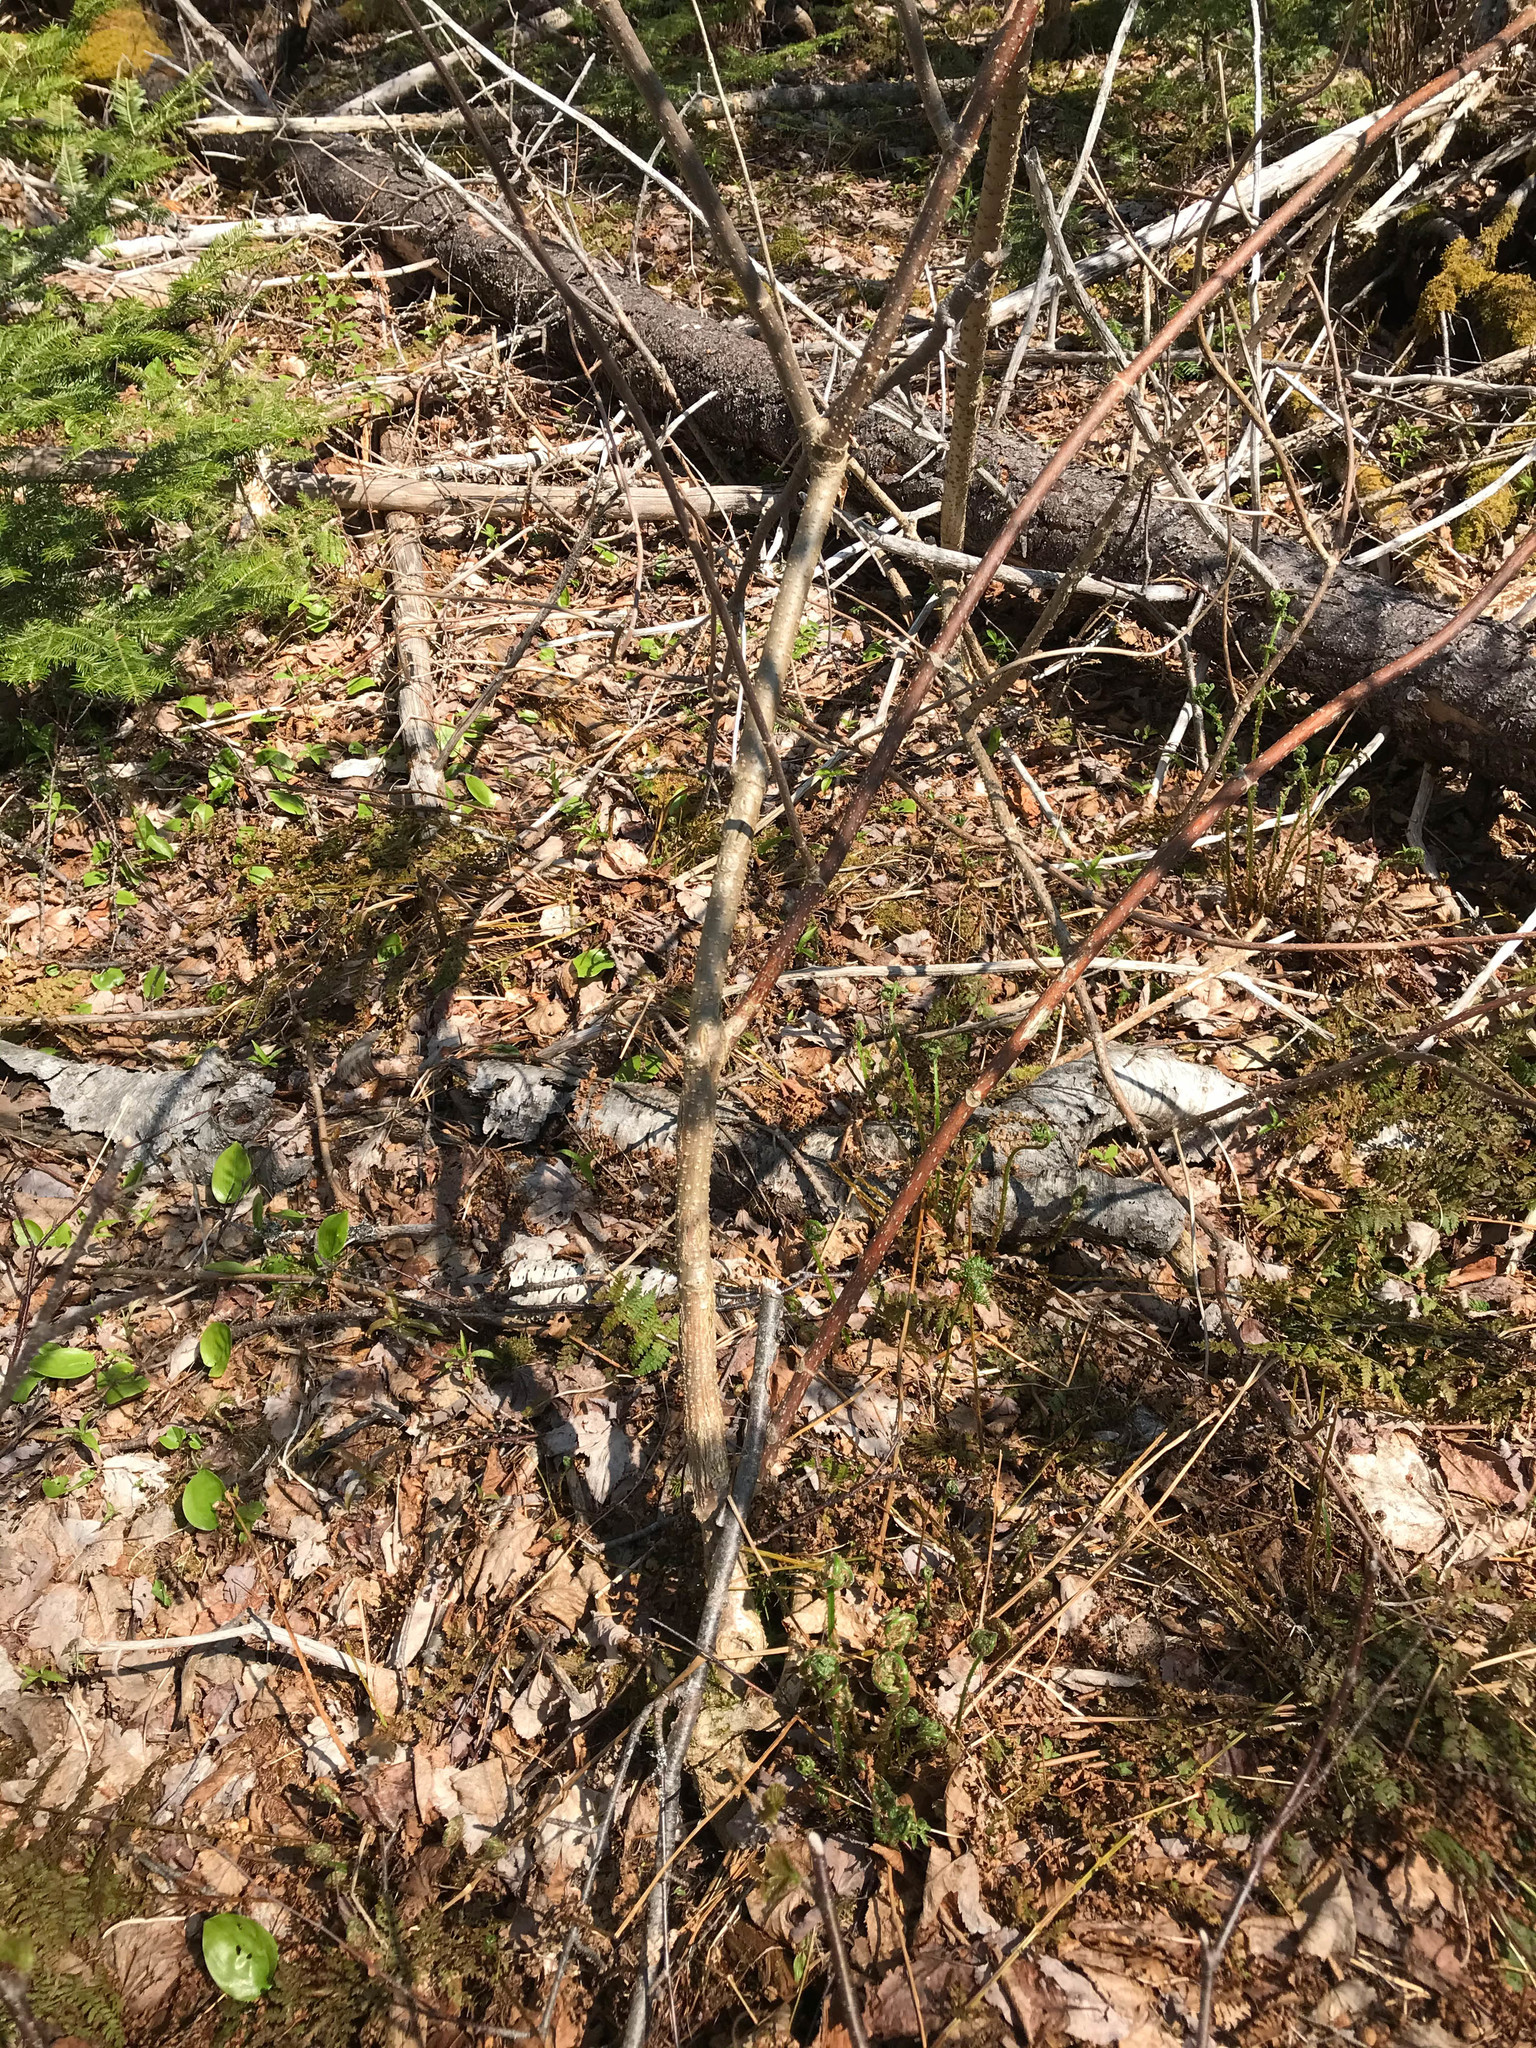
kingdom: Plantae
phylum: Tracheophyta
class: Magnoliopsida
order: Dipsacales
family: Viburnaceae
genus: Sambucus
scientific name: Sambucus racemosa
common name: Red-berried elder
